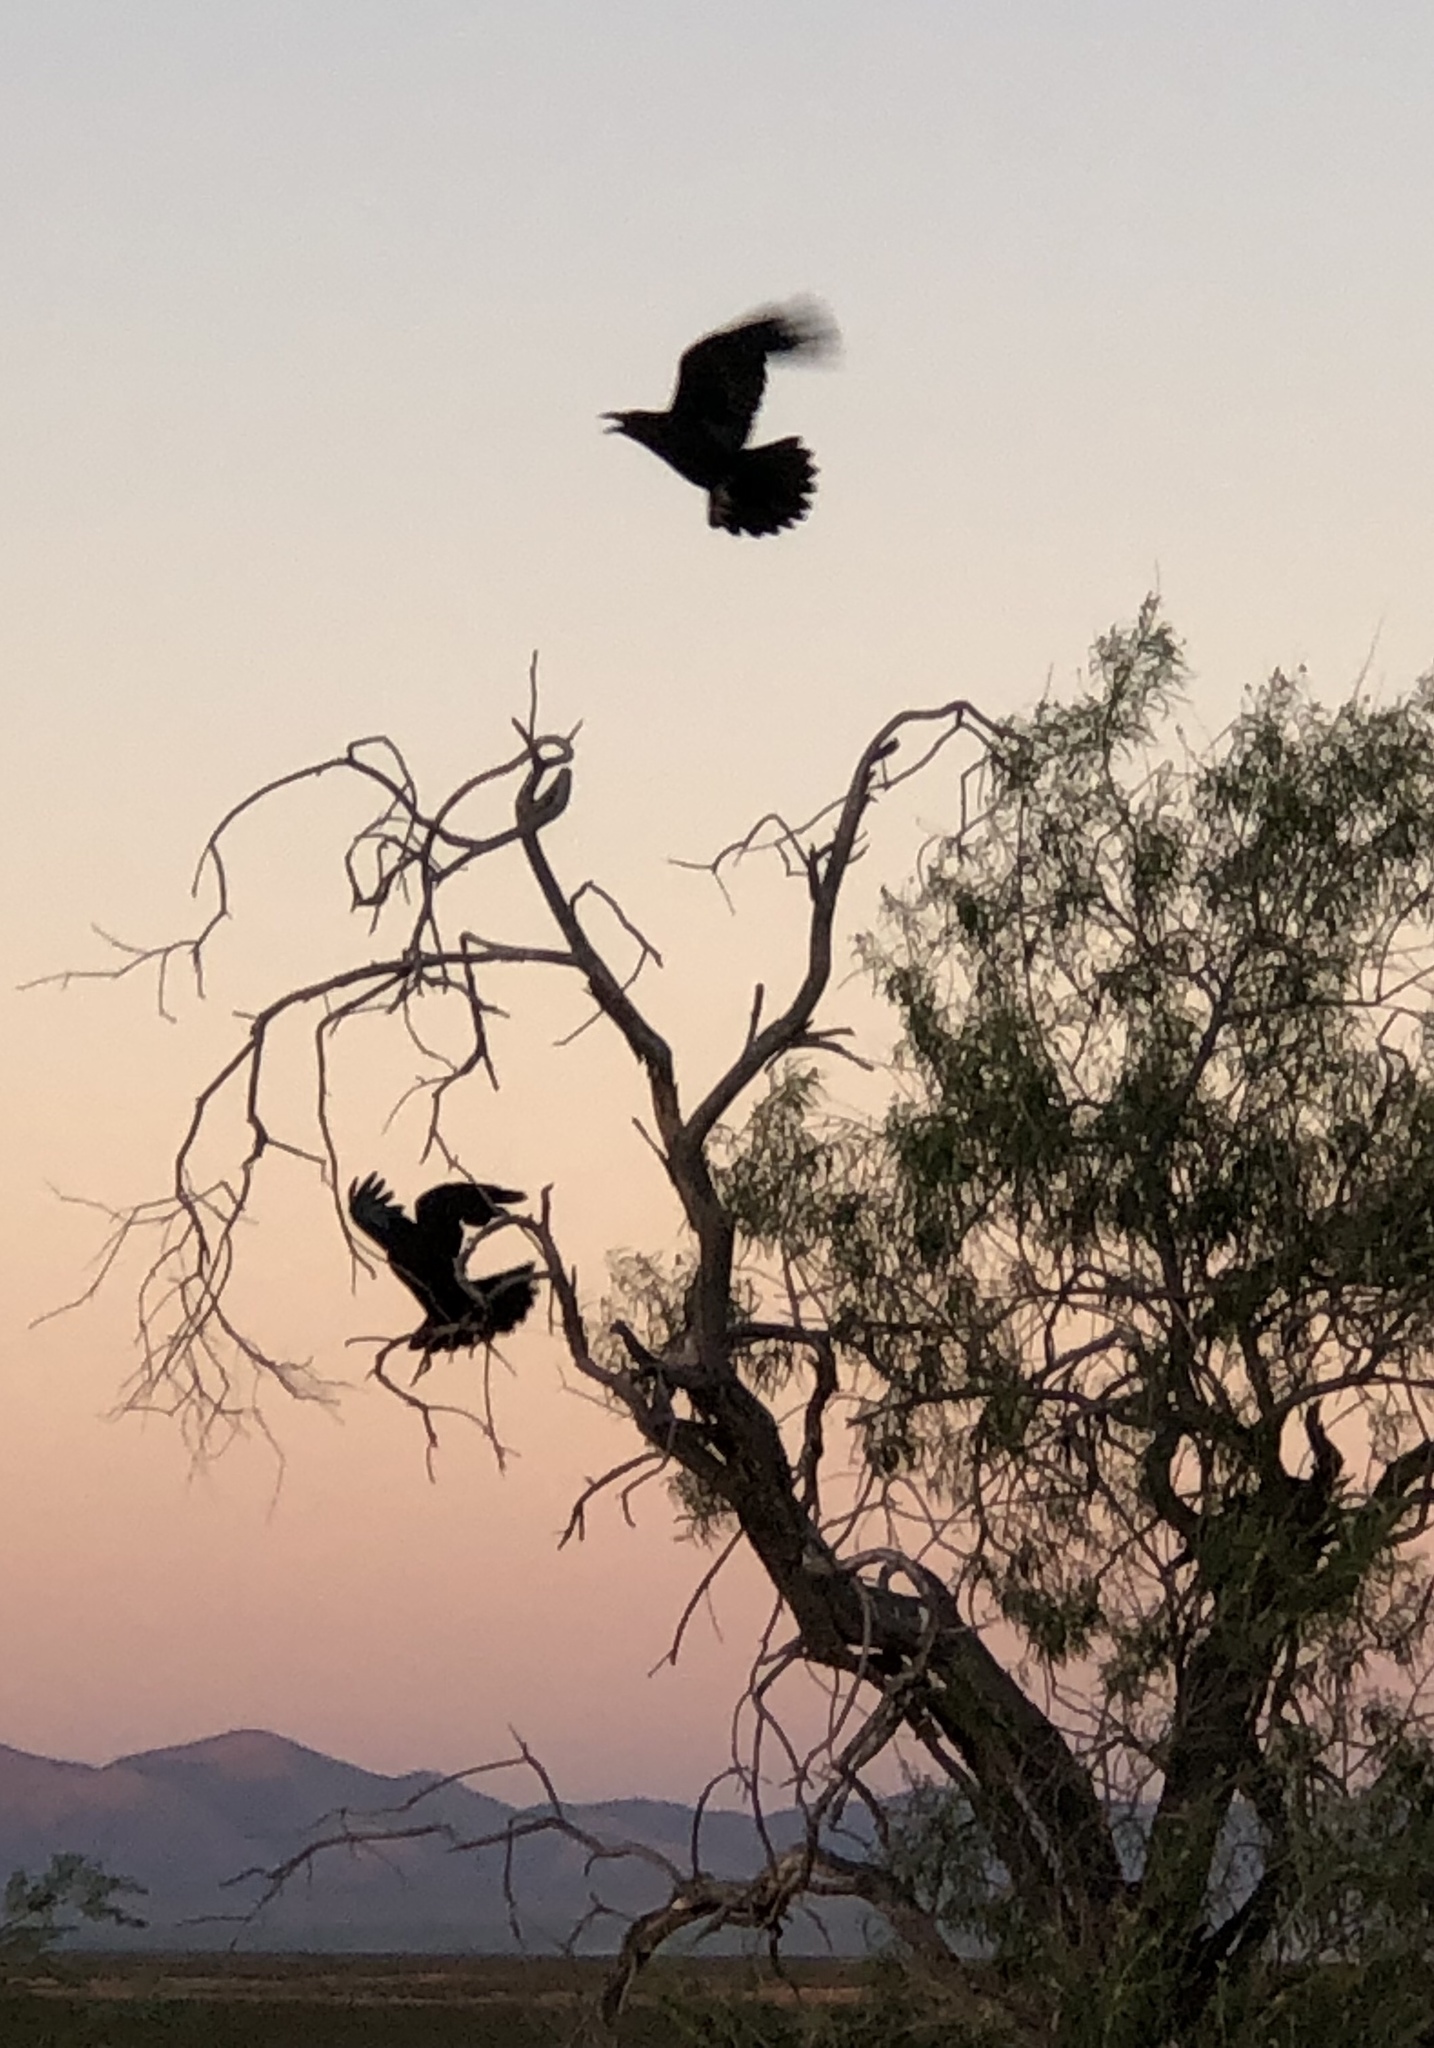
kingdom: Animalia
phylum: Chordata
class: Aves
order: Passeriformes
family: Corvidae
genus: Corvus
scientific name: Corvus cryptoleucus
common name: Chihuahuan raven
